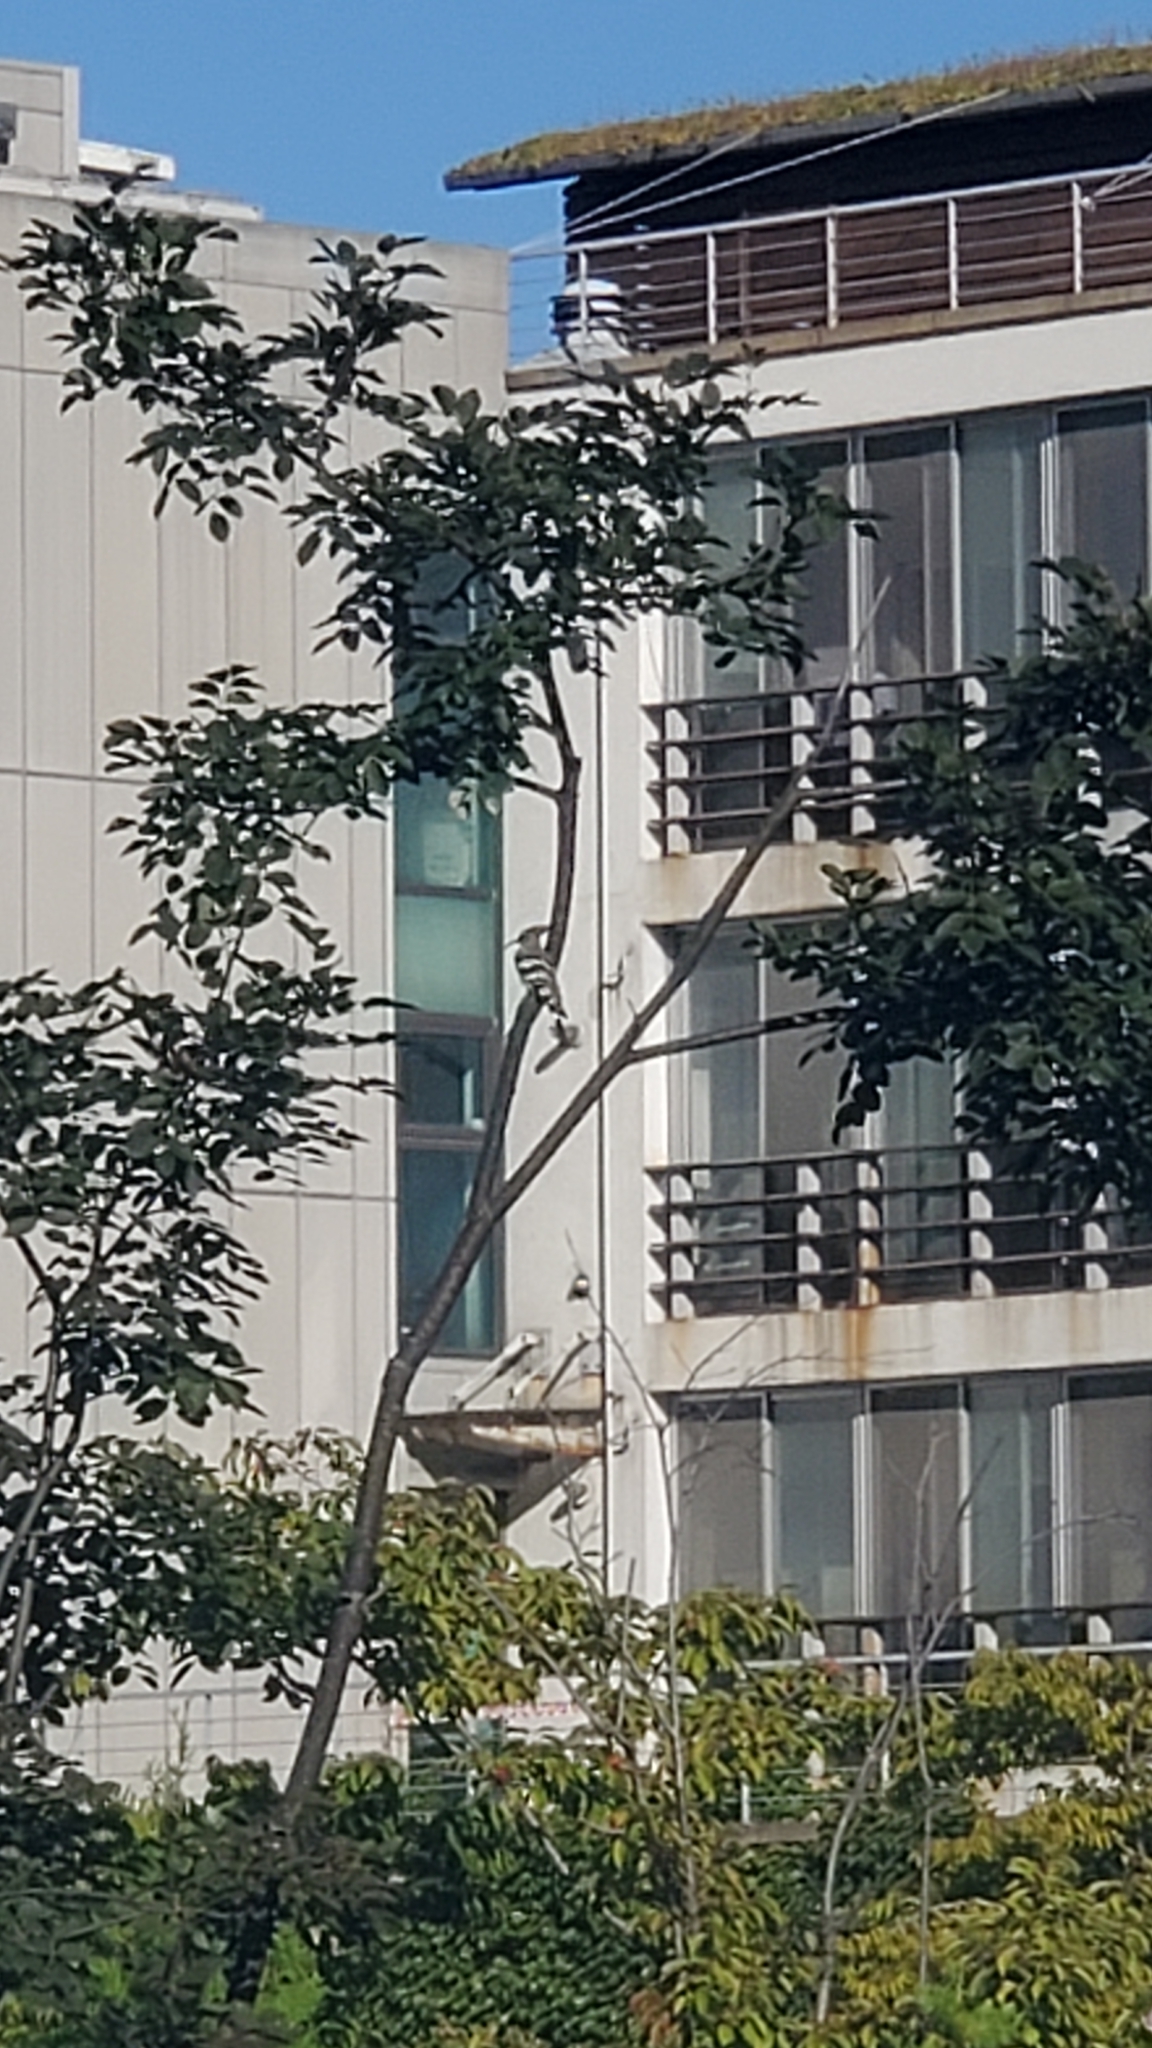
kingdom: Animalia
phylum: Chordata
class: Aves
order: Bucerotiformes
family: Upupidae
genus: Upupa
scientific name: Upupa epops
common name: Eurasian hoopoe
